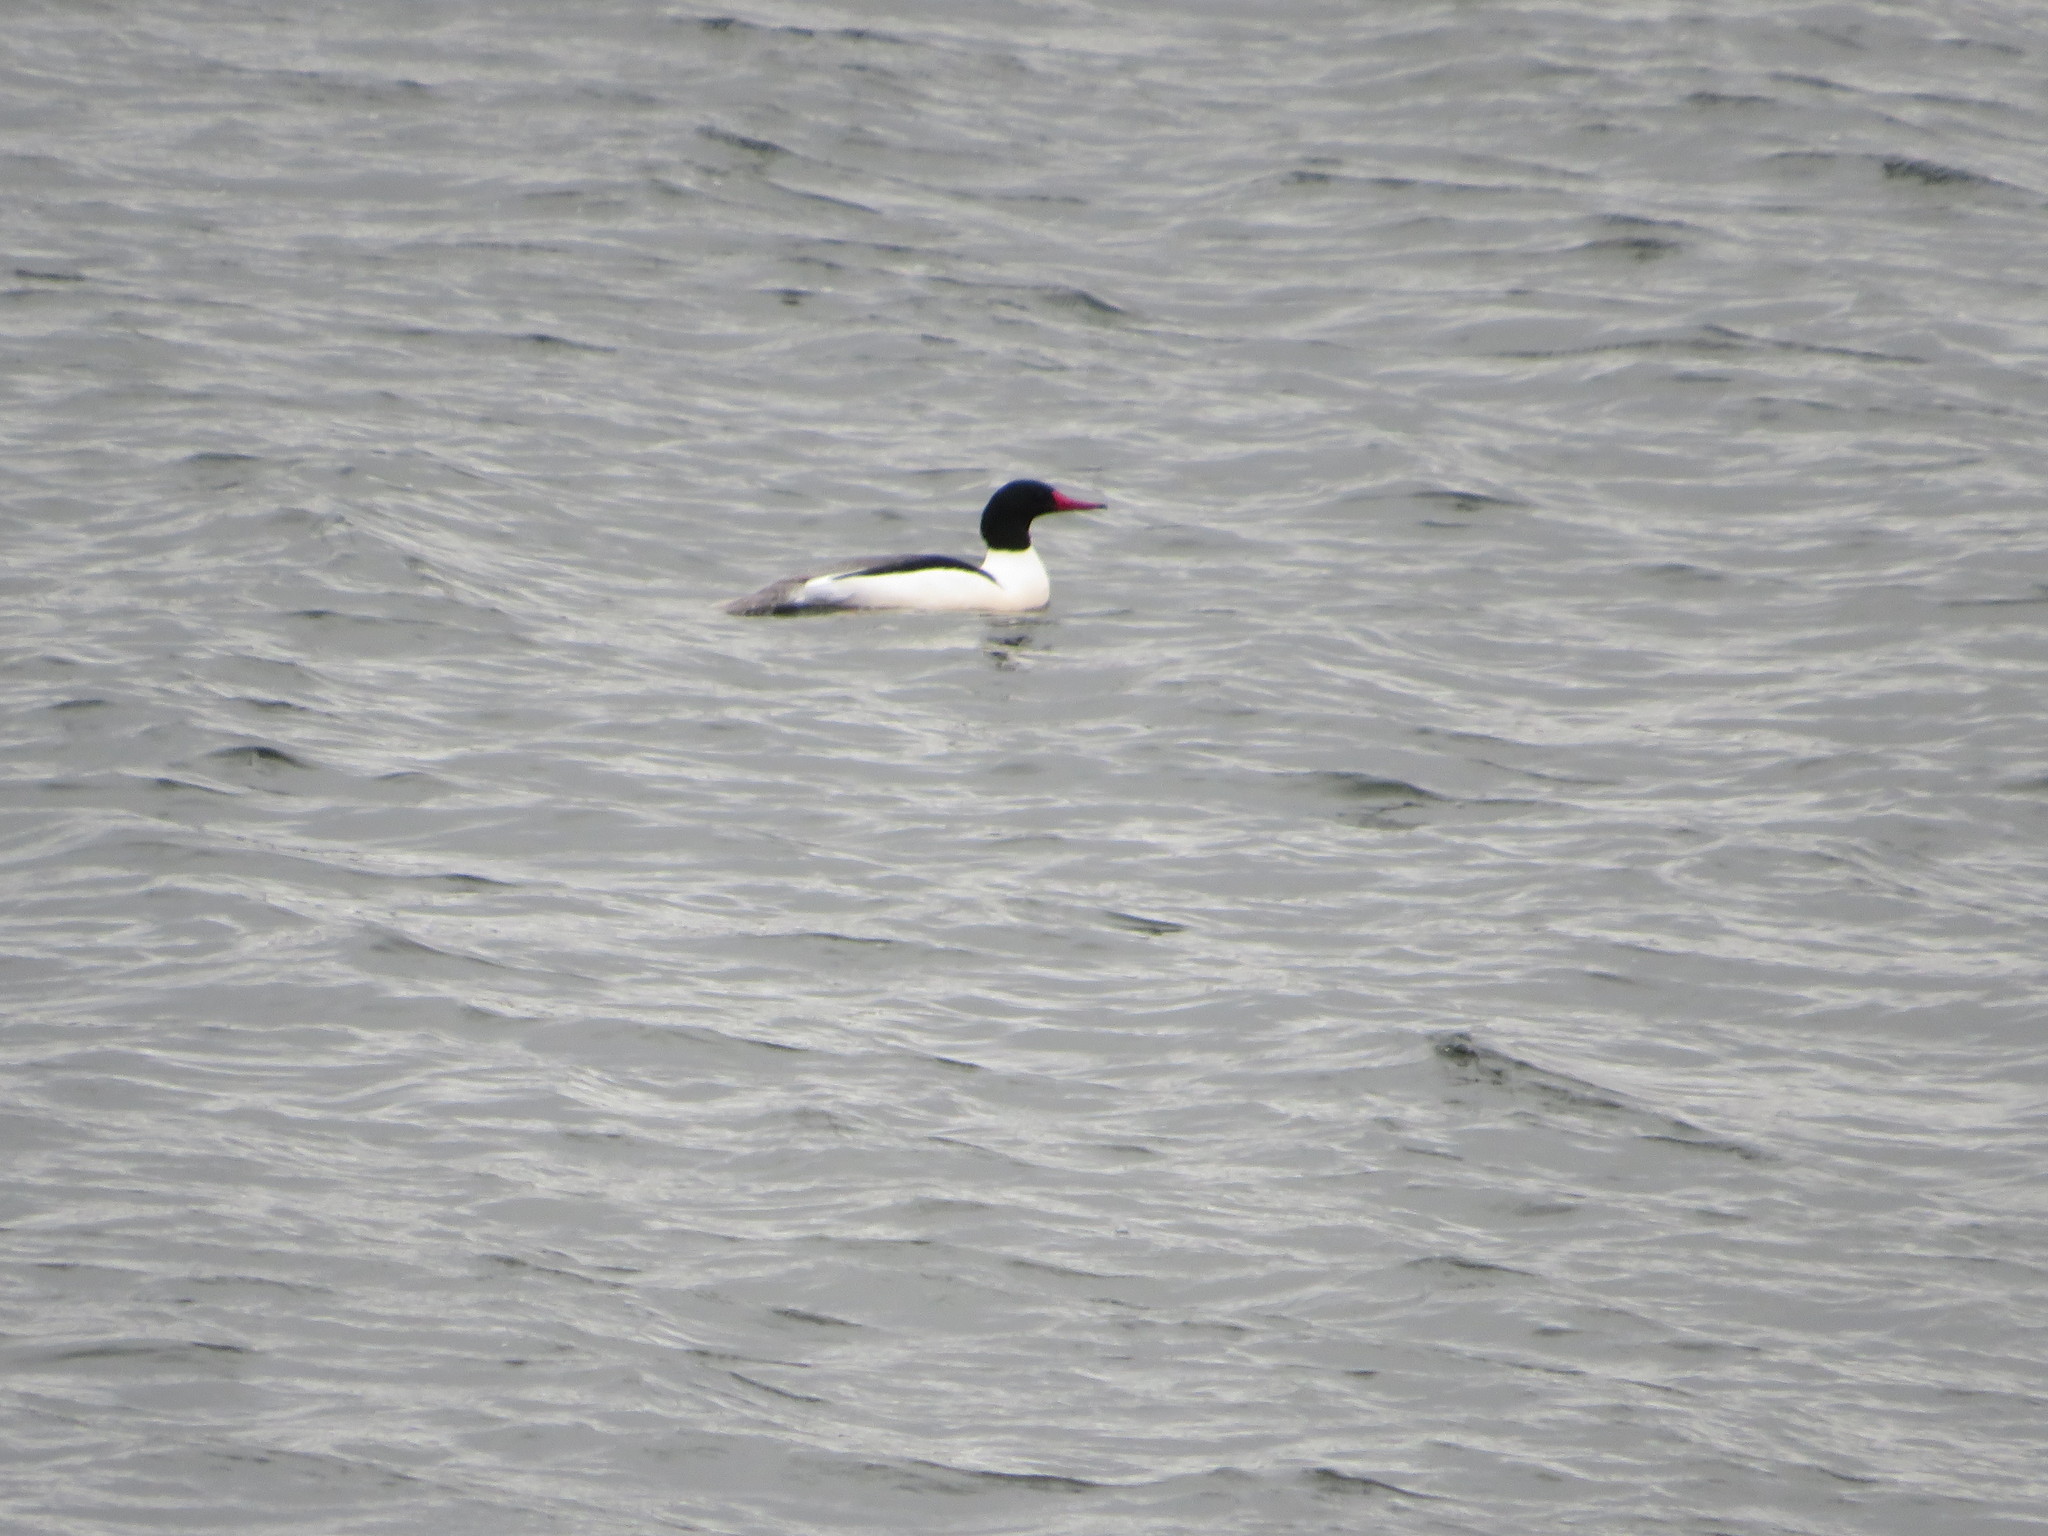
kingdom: Animalia
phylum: Chordata
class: Aves
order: Anseriformes
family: Anatidae
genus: Mergus
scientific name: Mergus merganser
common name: Common merganser
